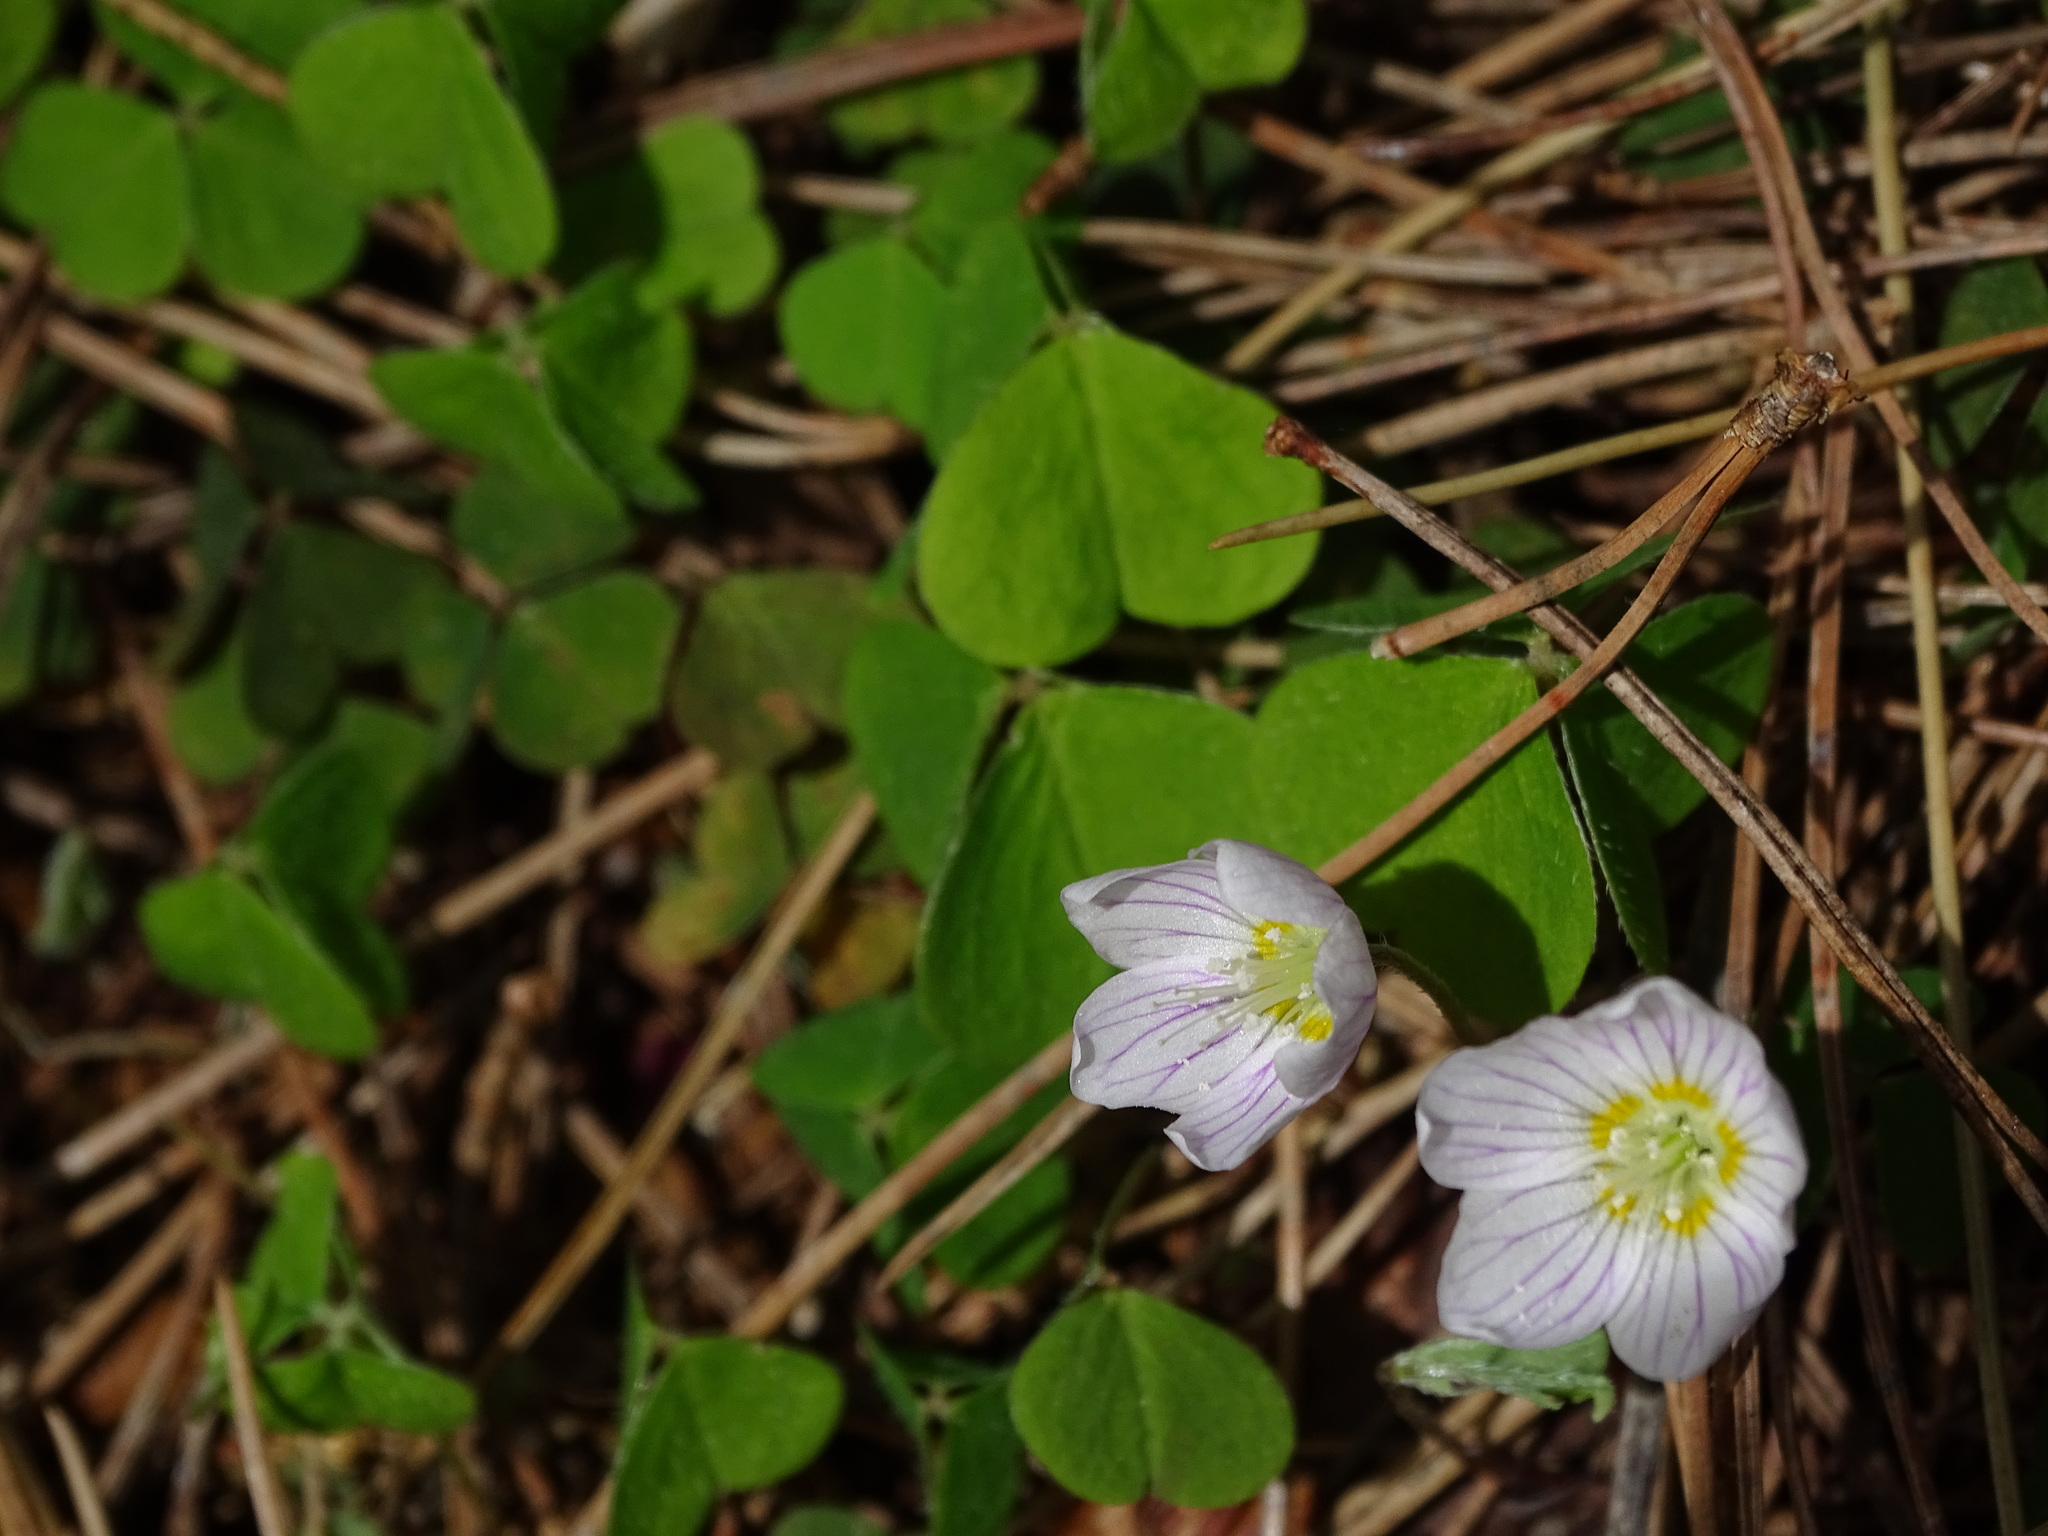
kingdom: Plantae
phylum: Tracheophyta
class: Magnoliopsida
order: Oxalidales
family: Oxalidaceae
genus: Oxalis
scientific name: Oxalis acetosella
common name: Wood-sorrel
